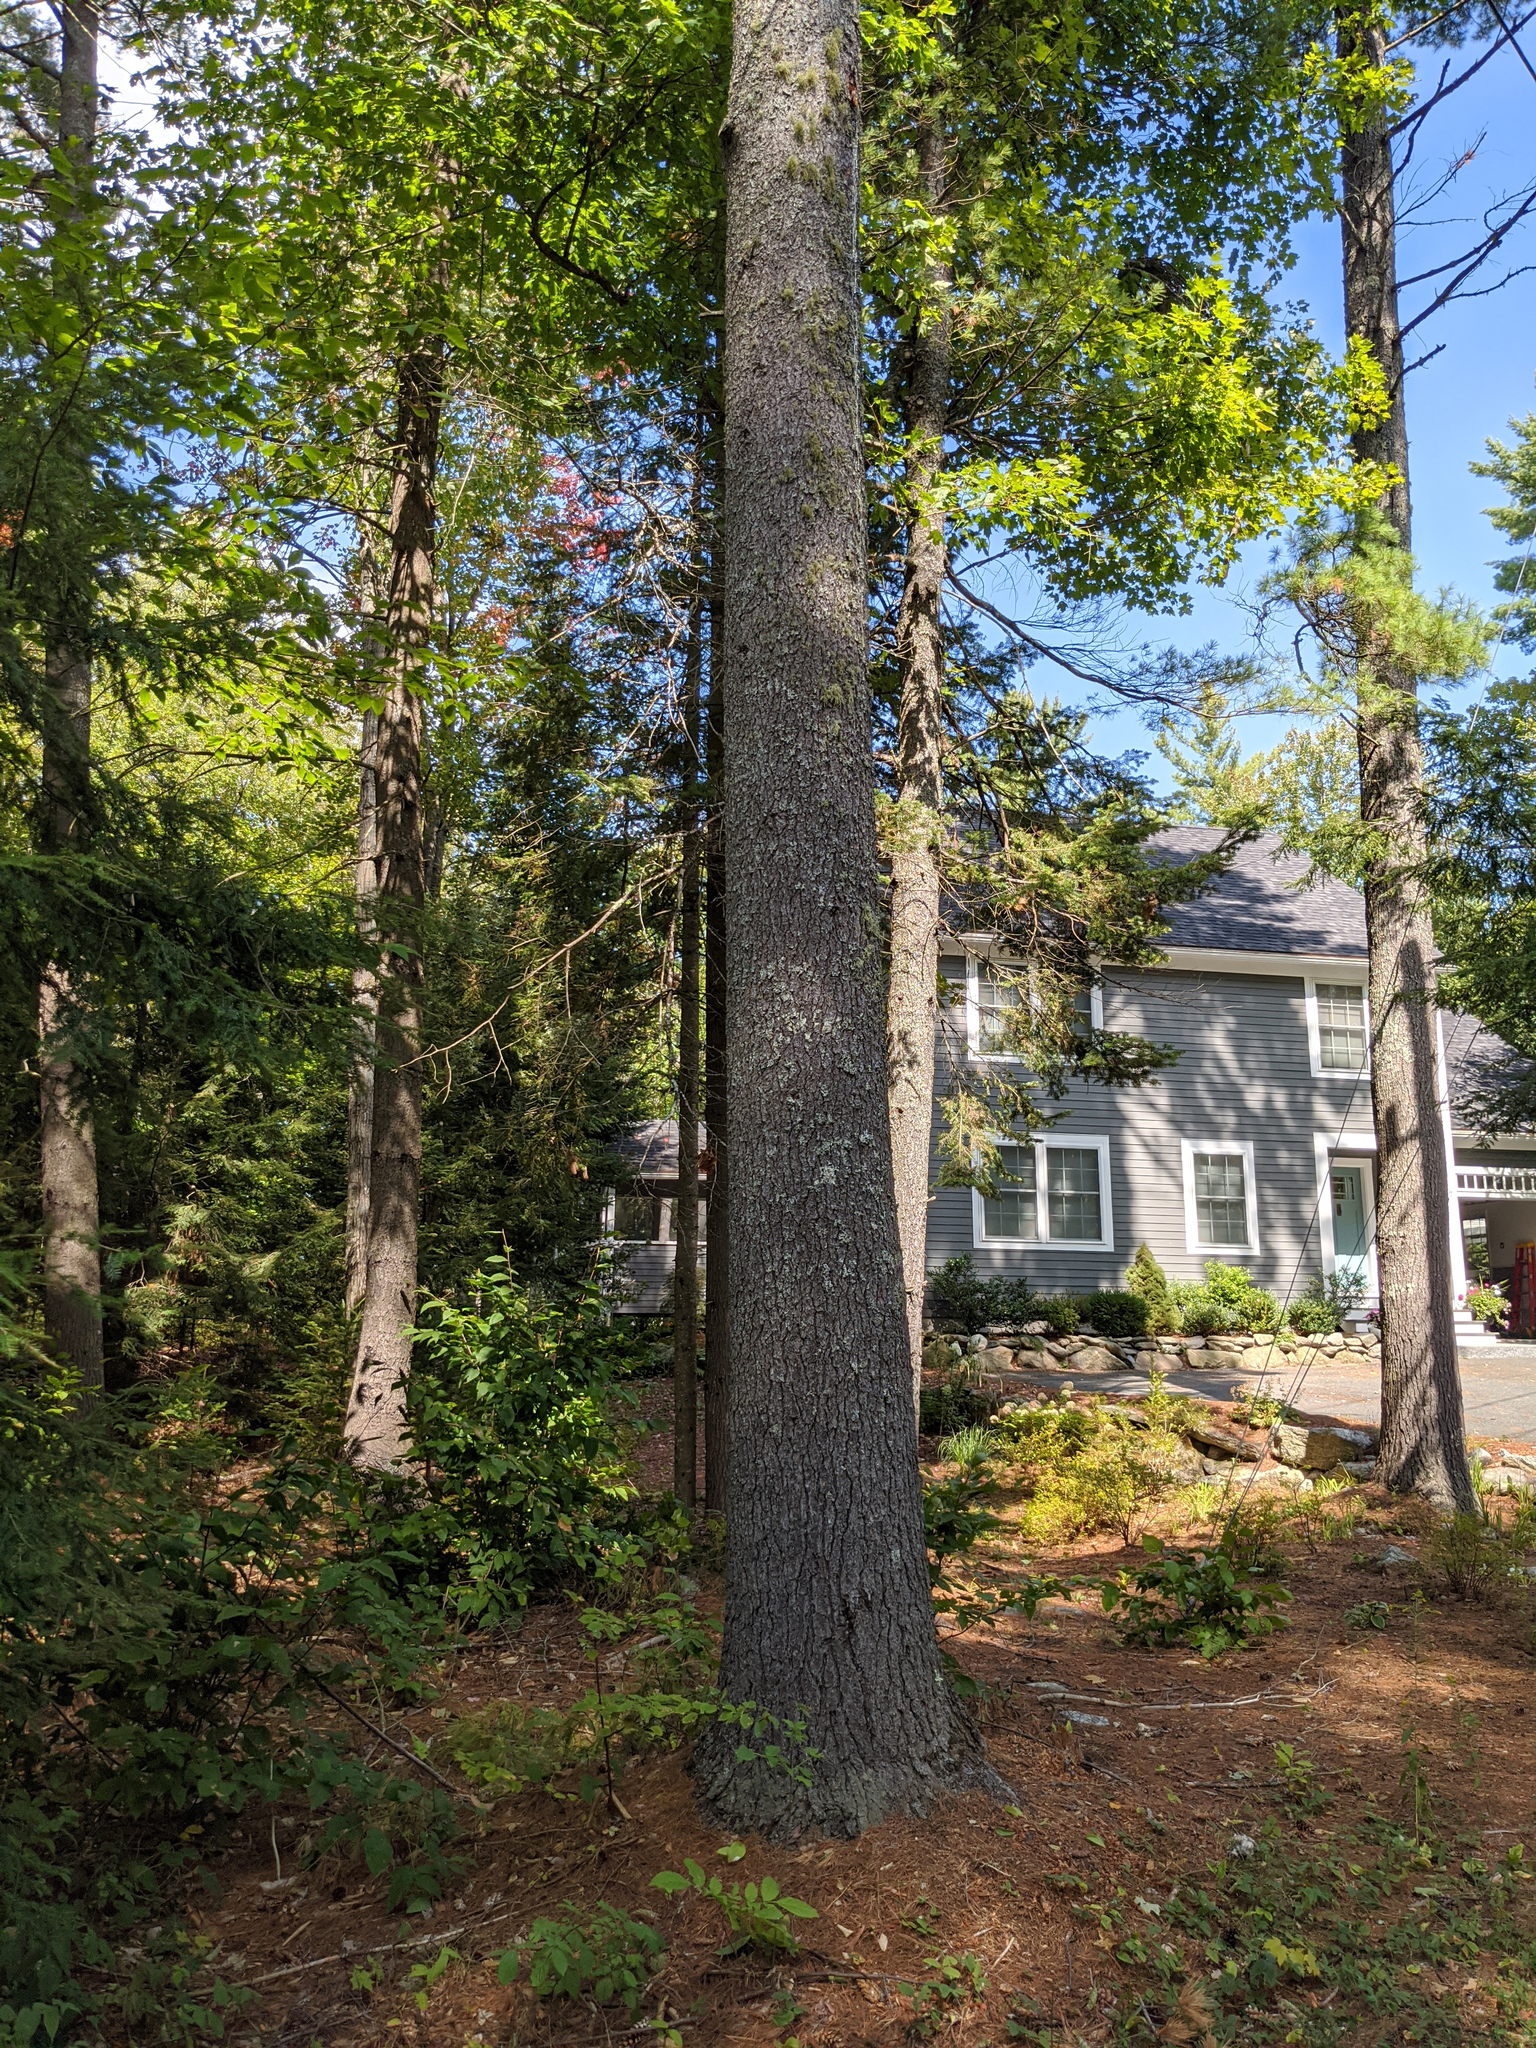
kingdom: Plantae
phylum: Tracheophyta
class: Pinopsida
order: Pinales
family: Pinaceae
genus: Pinus
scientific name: Pinus strobus
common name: Weymouth pine
